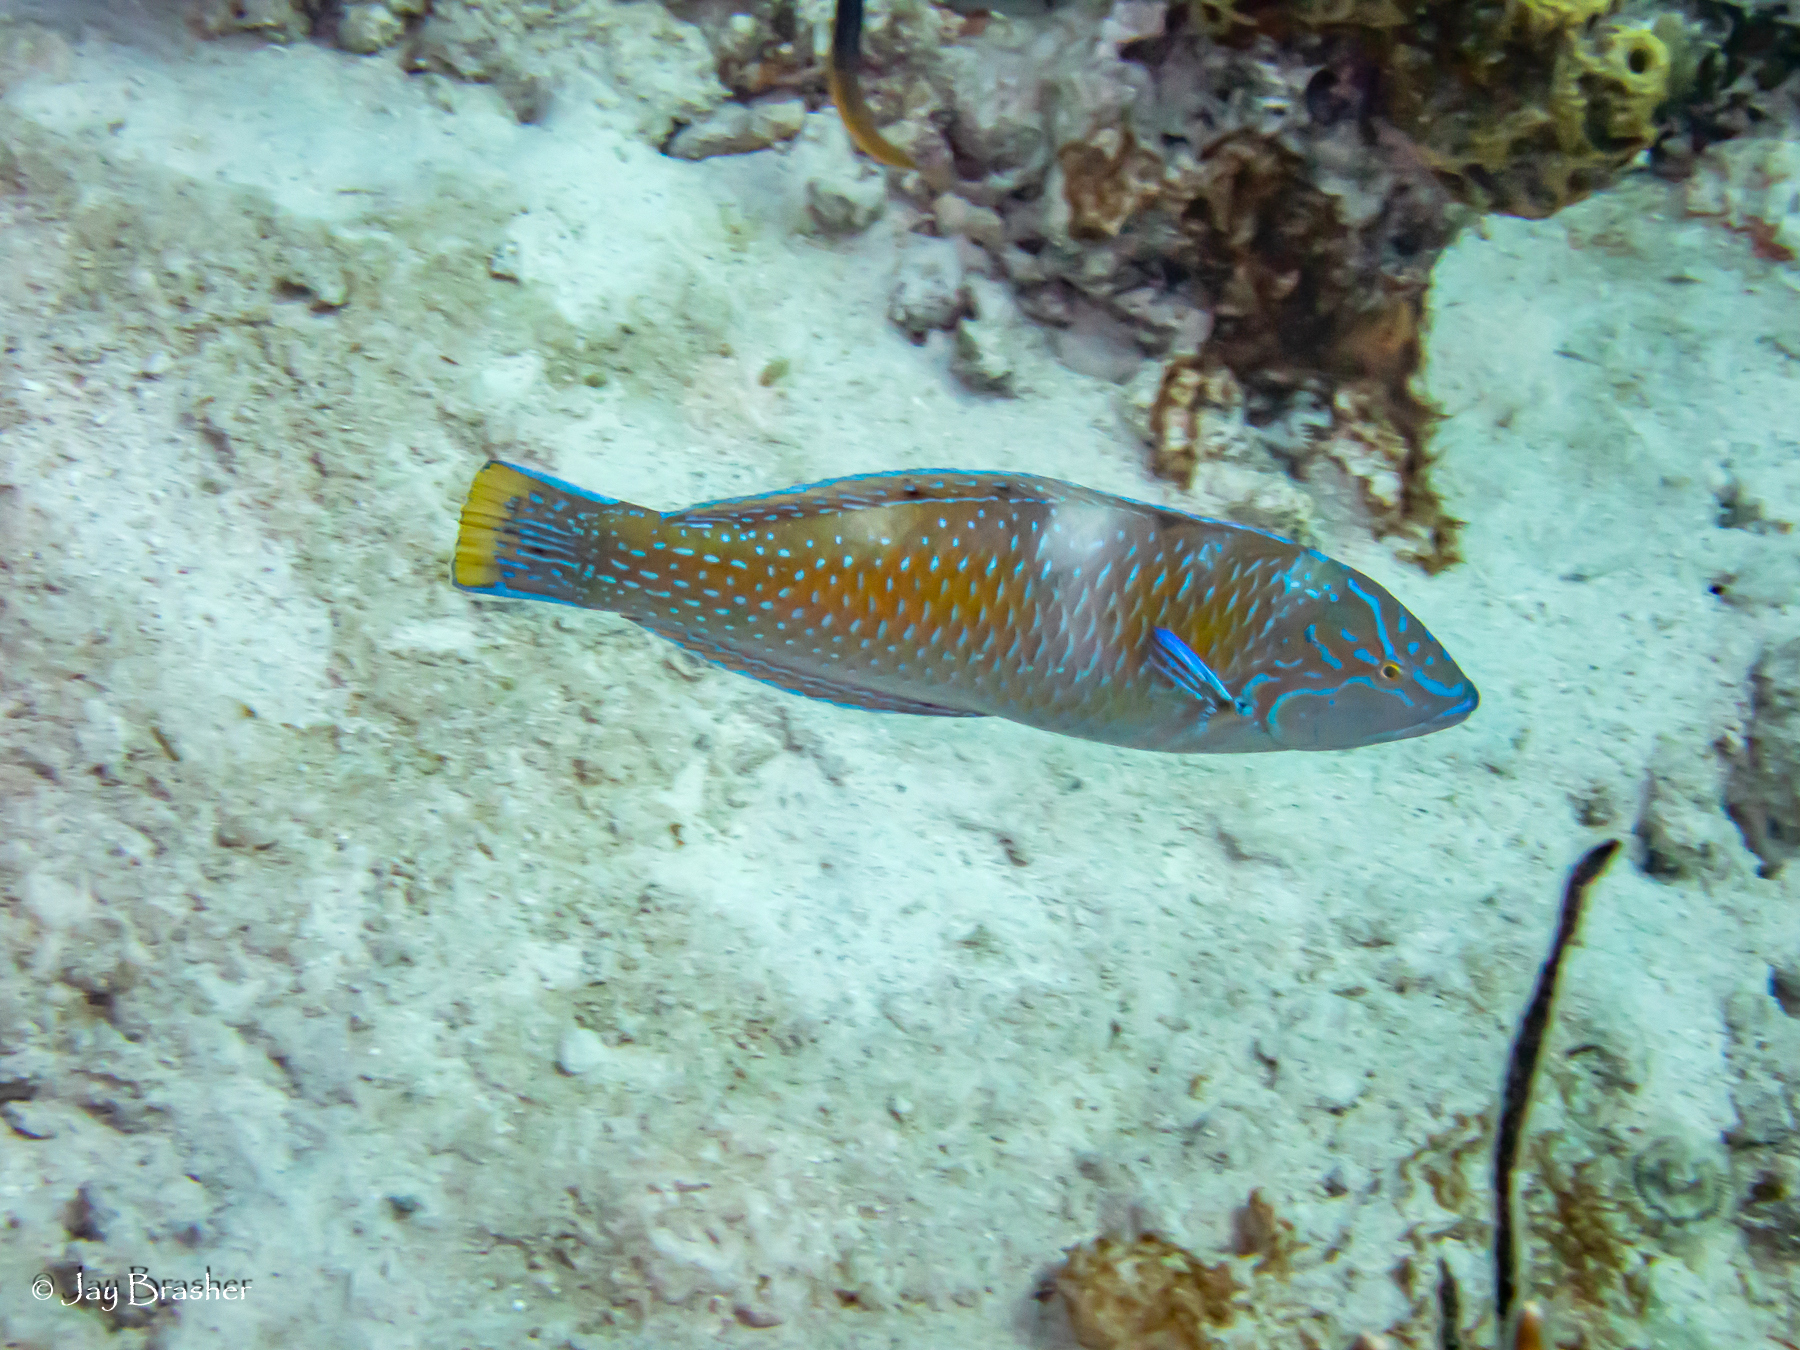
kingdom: Animalia
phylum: Chordata
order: Perciformes
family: Labridae
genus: Halichoeres
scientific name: Halichoeres radiatus
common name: Puddingwife
